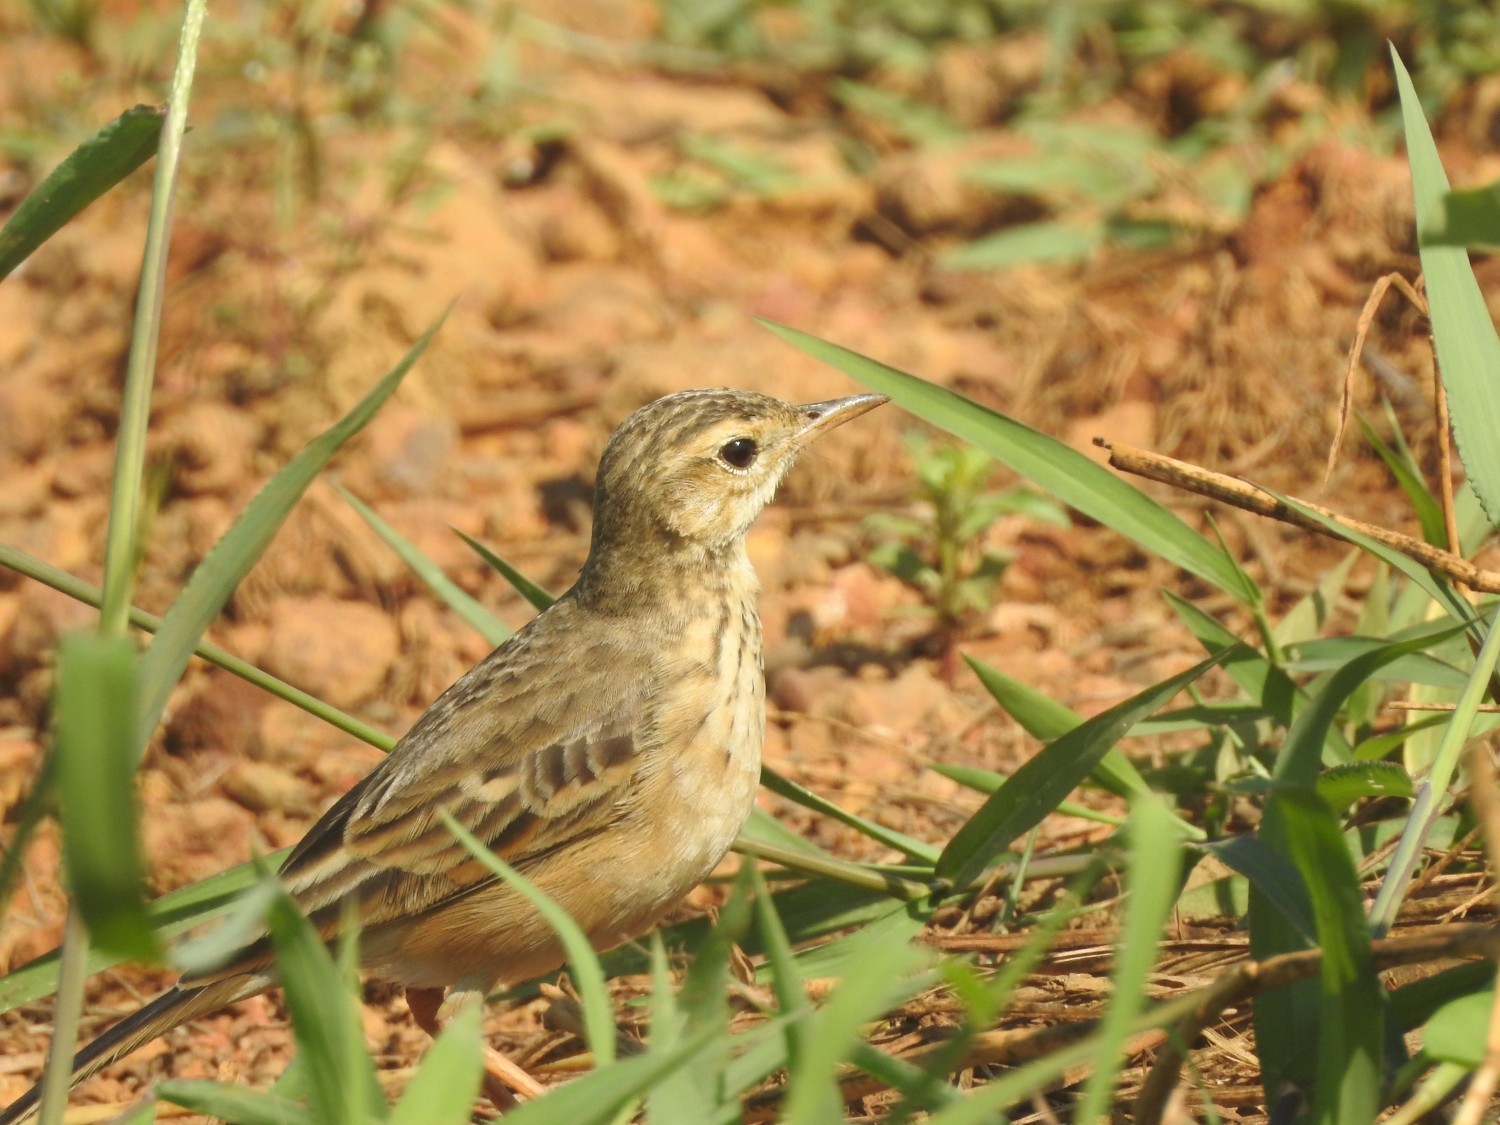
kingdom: Animalia
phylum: Chordata
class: Aves
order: Passeriformes
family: Motacillidae
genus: Anthus
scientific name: Anthus rufulus
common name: Paddyfield pipit
